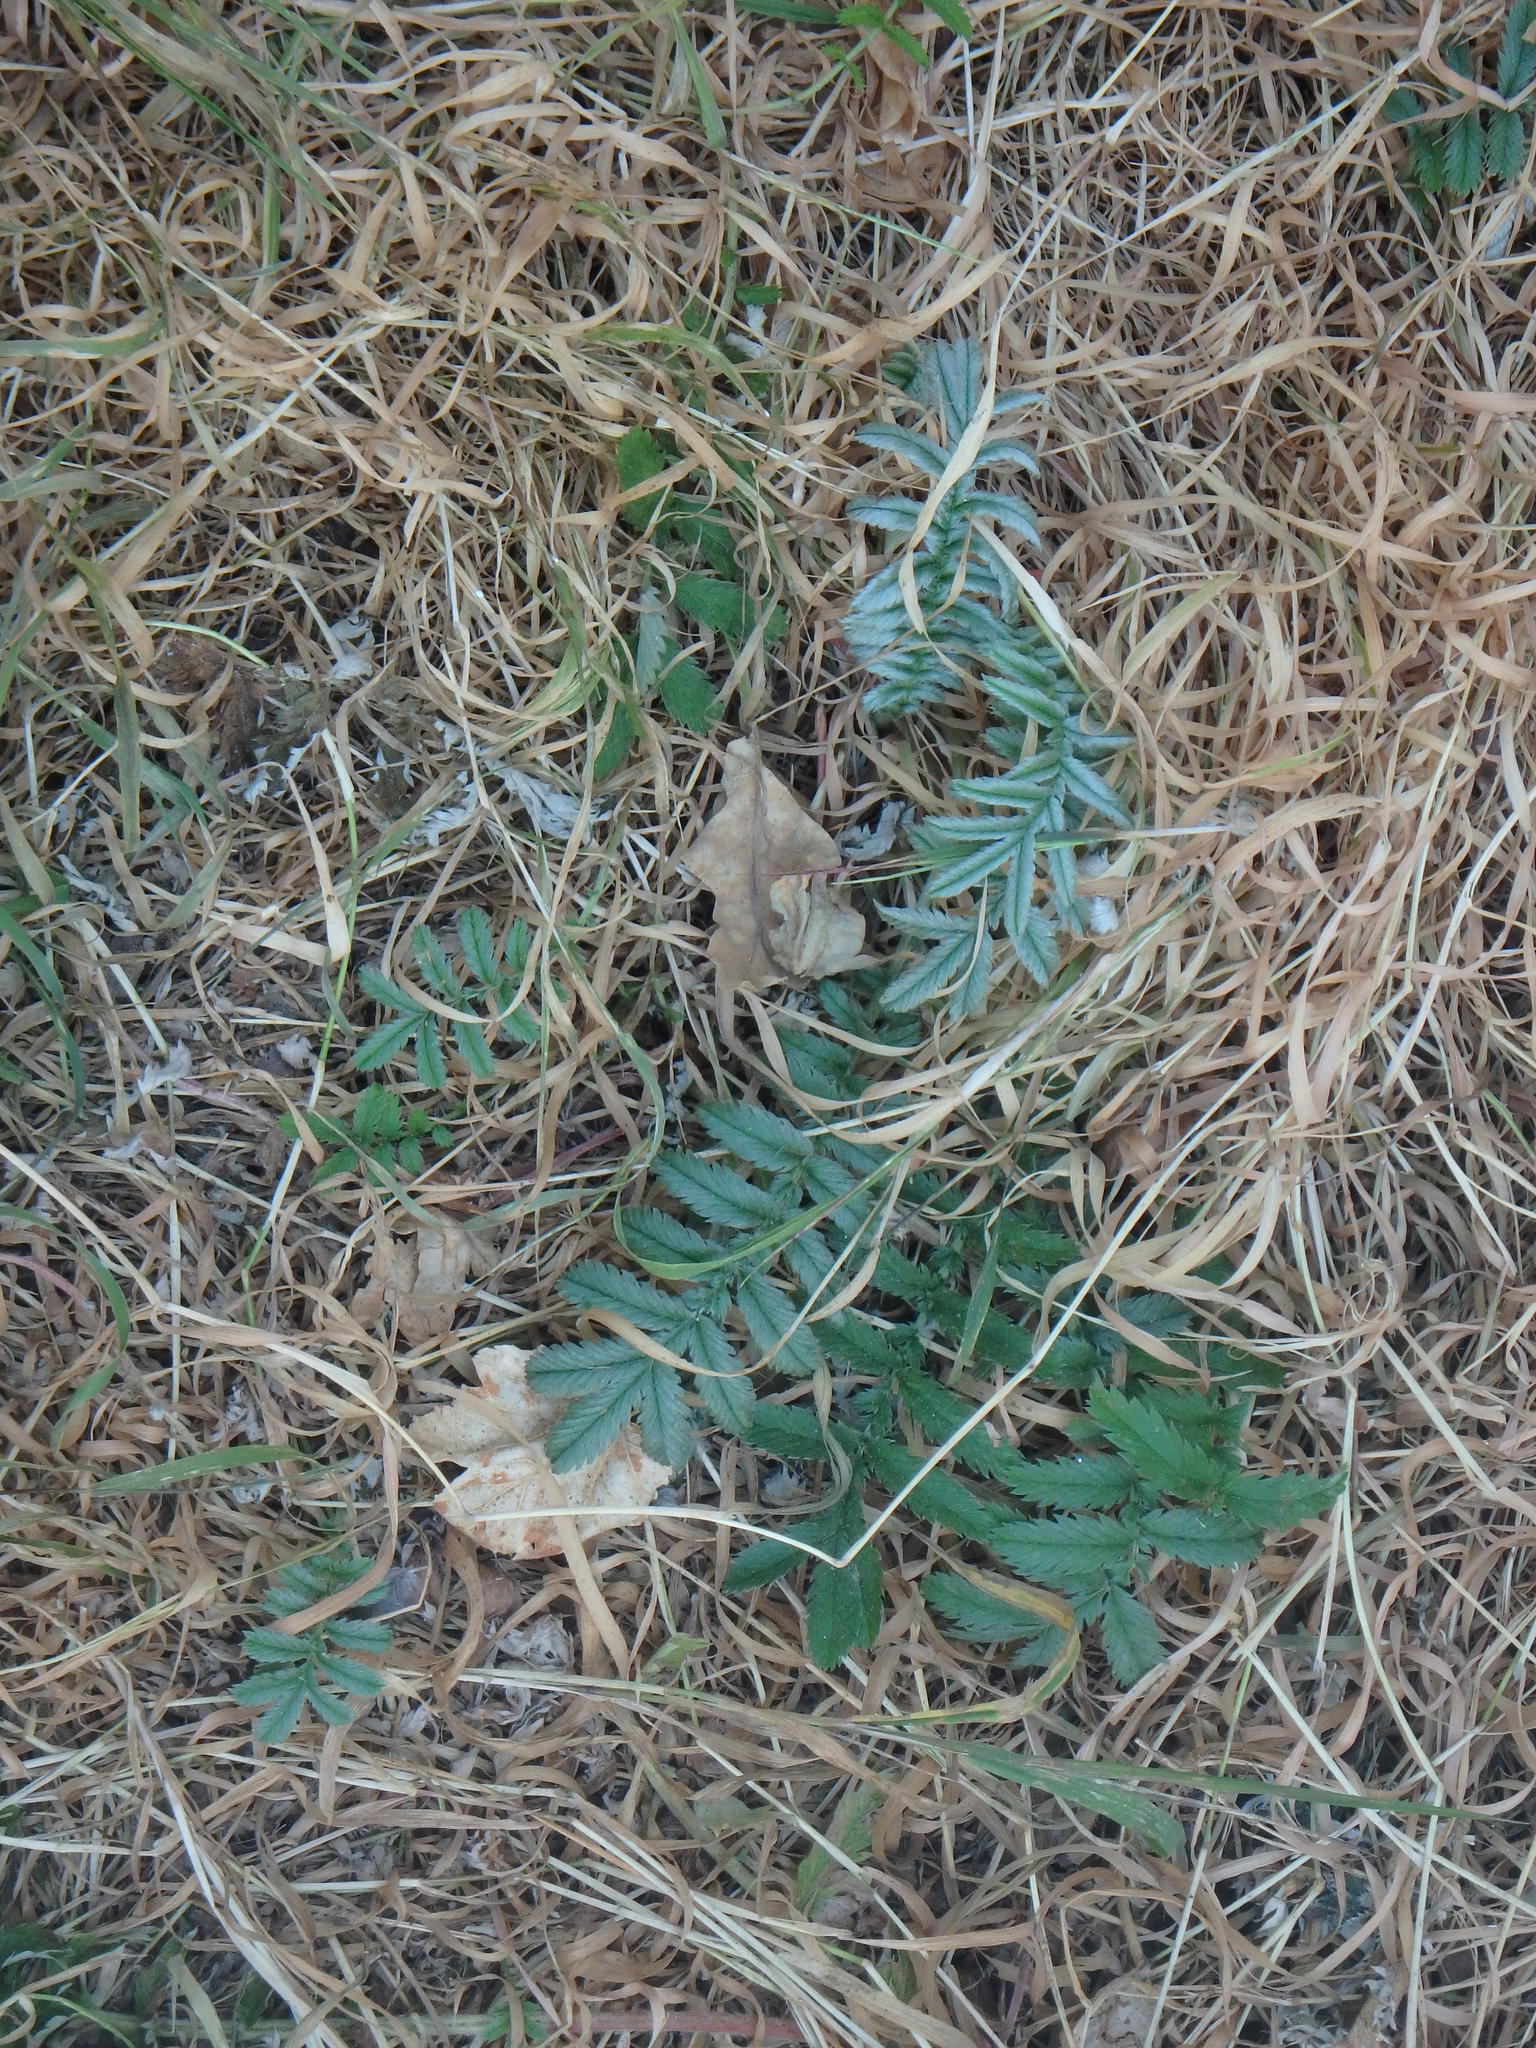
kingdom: Plantae
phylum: Tracheophyta
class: Magnoliopsida
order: Rosales
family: Rosaceae
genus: Argentina
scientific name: Argentina anserina
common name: Common silverweed
